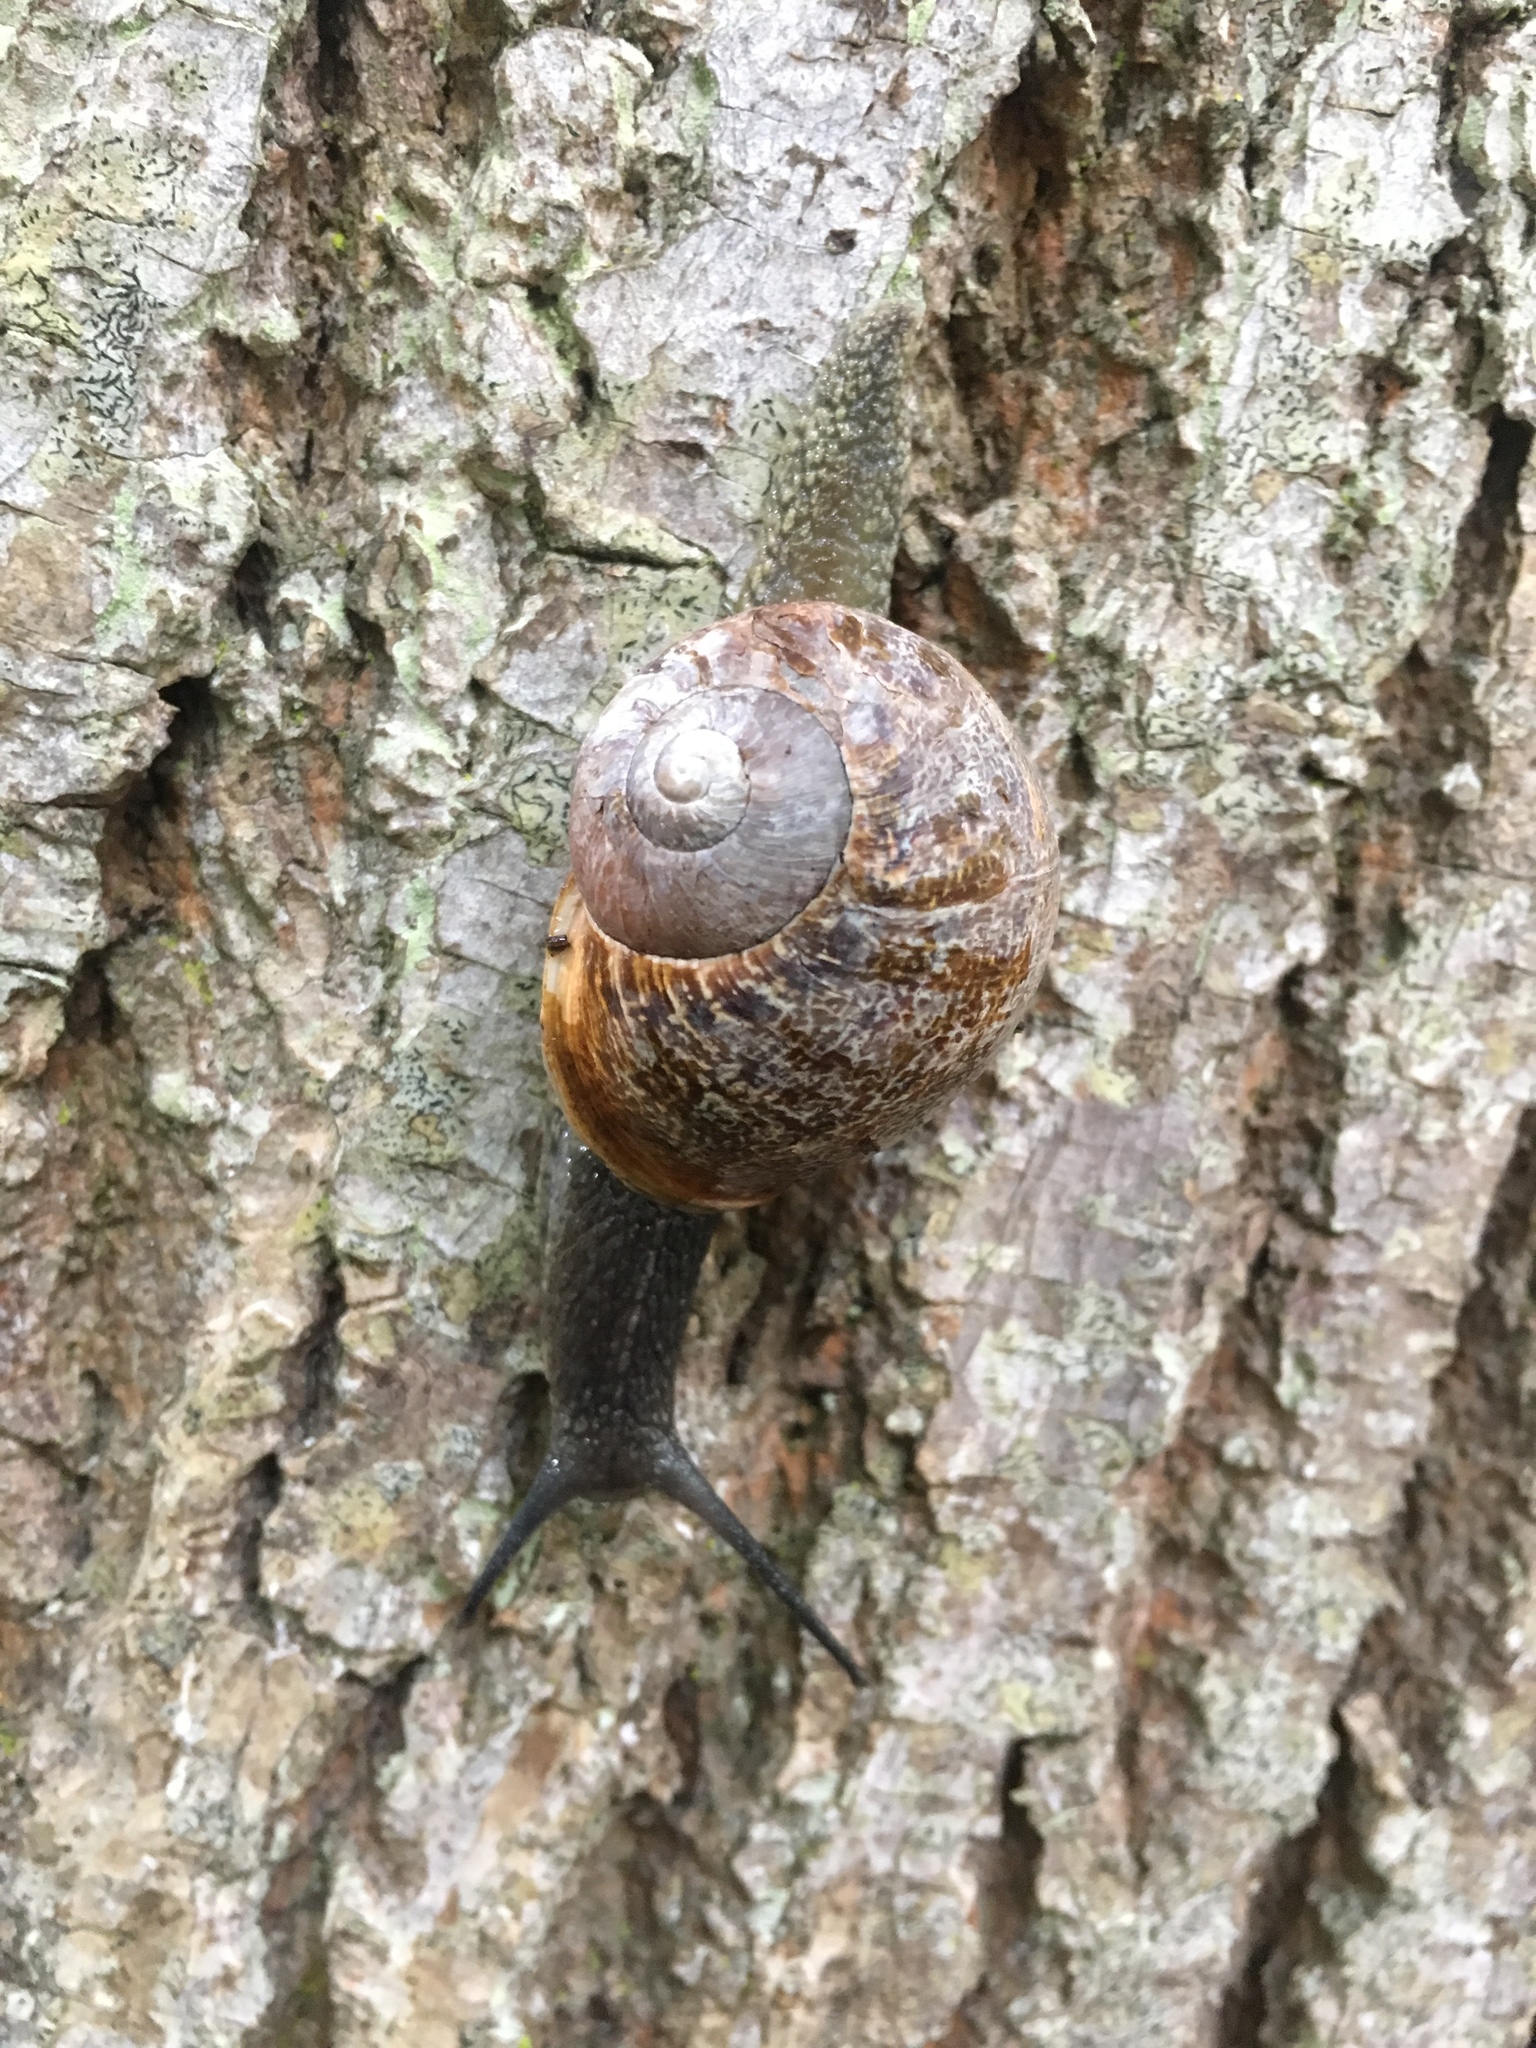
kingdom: Animalia
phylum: Mollusca
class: Gastropoda
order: Stylommatophora
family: Helicidae
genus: Cornu
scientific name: Cornu aspersum
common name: Brown garden snail
